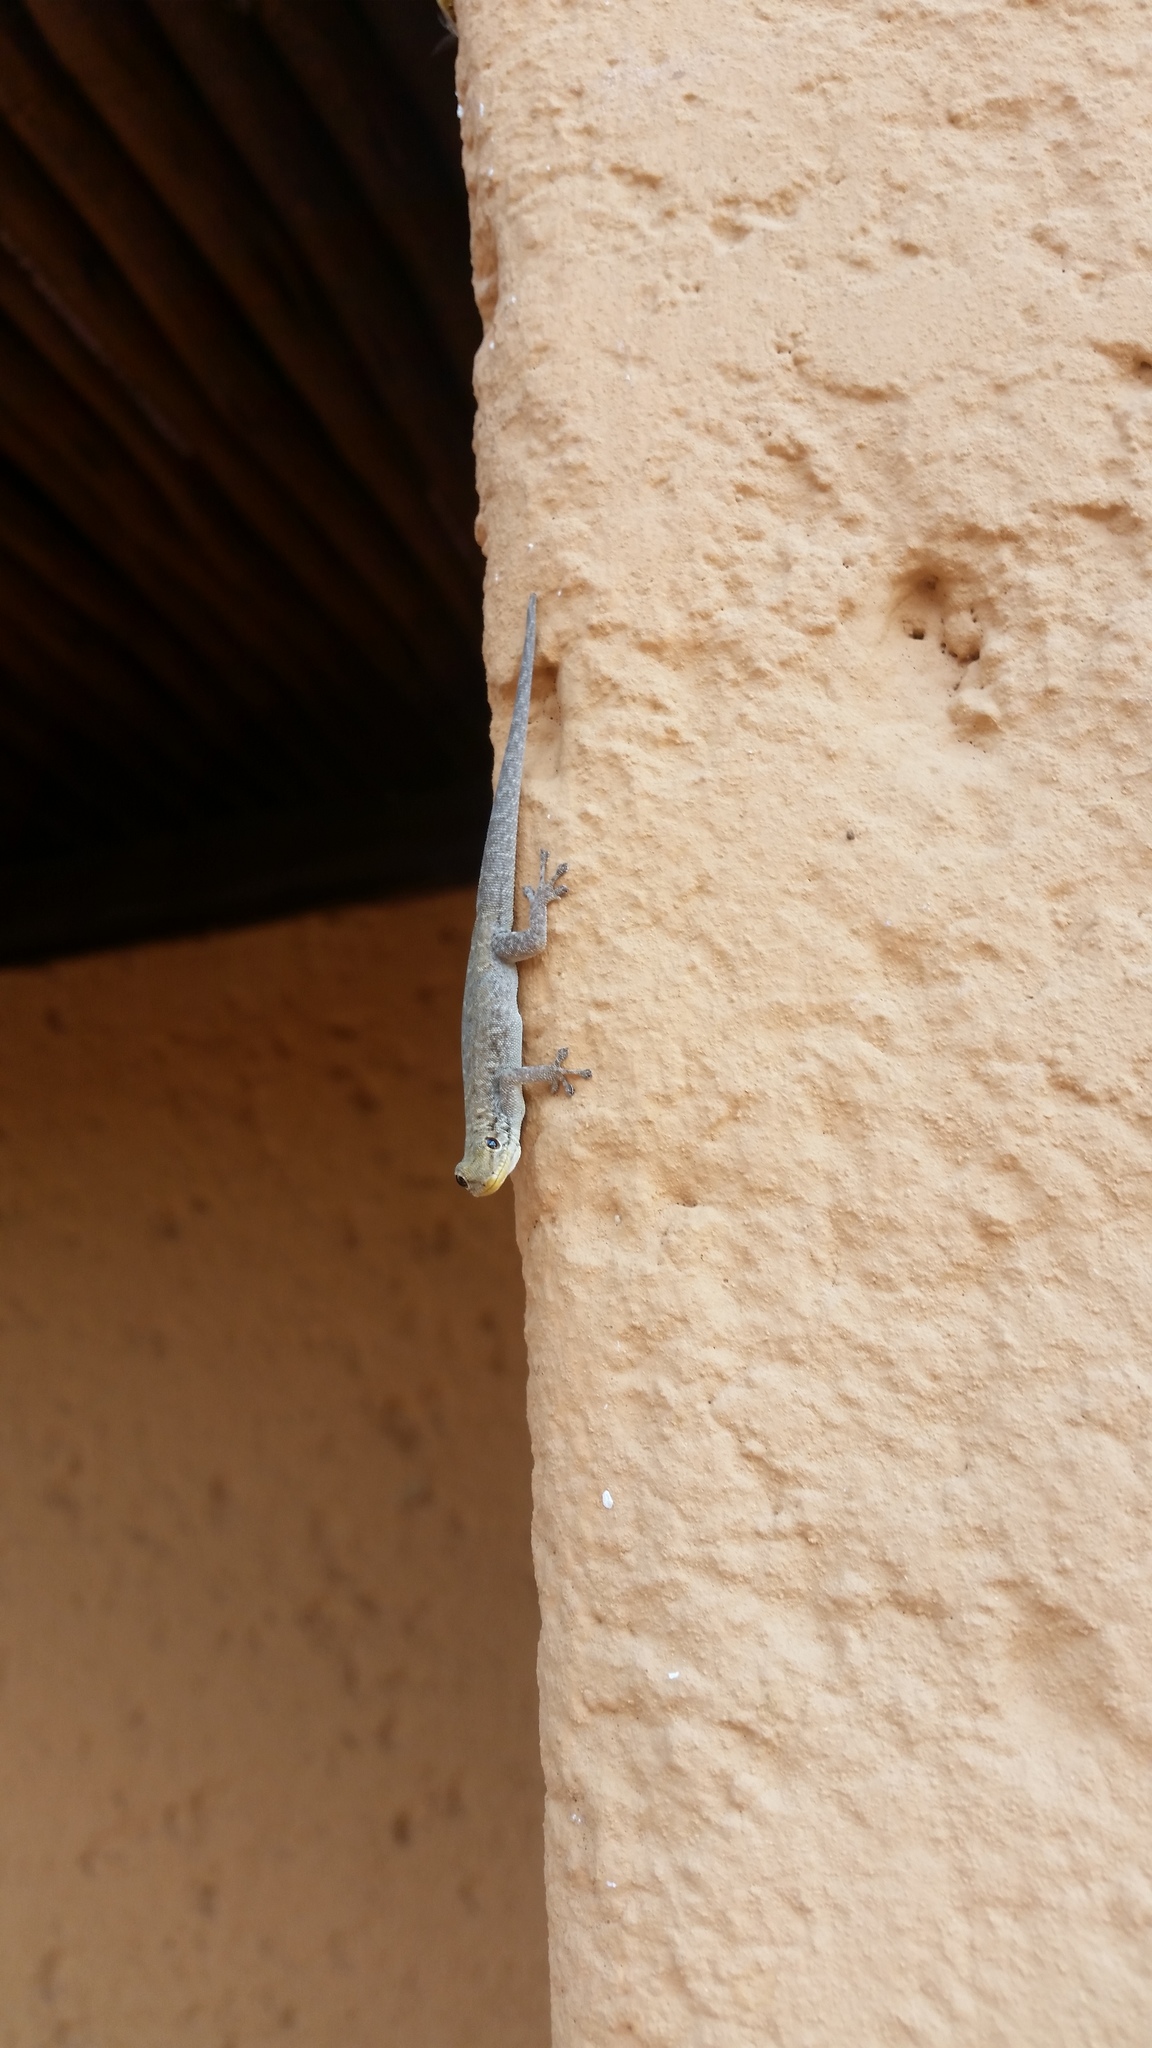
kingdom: Animalia
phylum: Chordata
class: Squamata
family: Gekkonidae
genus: Lygodactylus
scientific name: Lygodactylus stevensoni
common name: Stevenson's dwarf gecko
